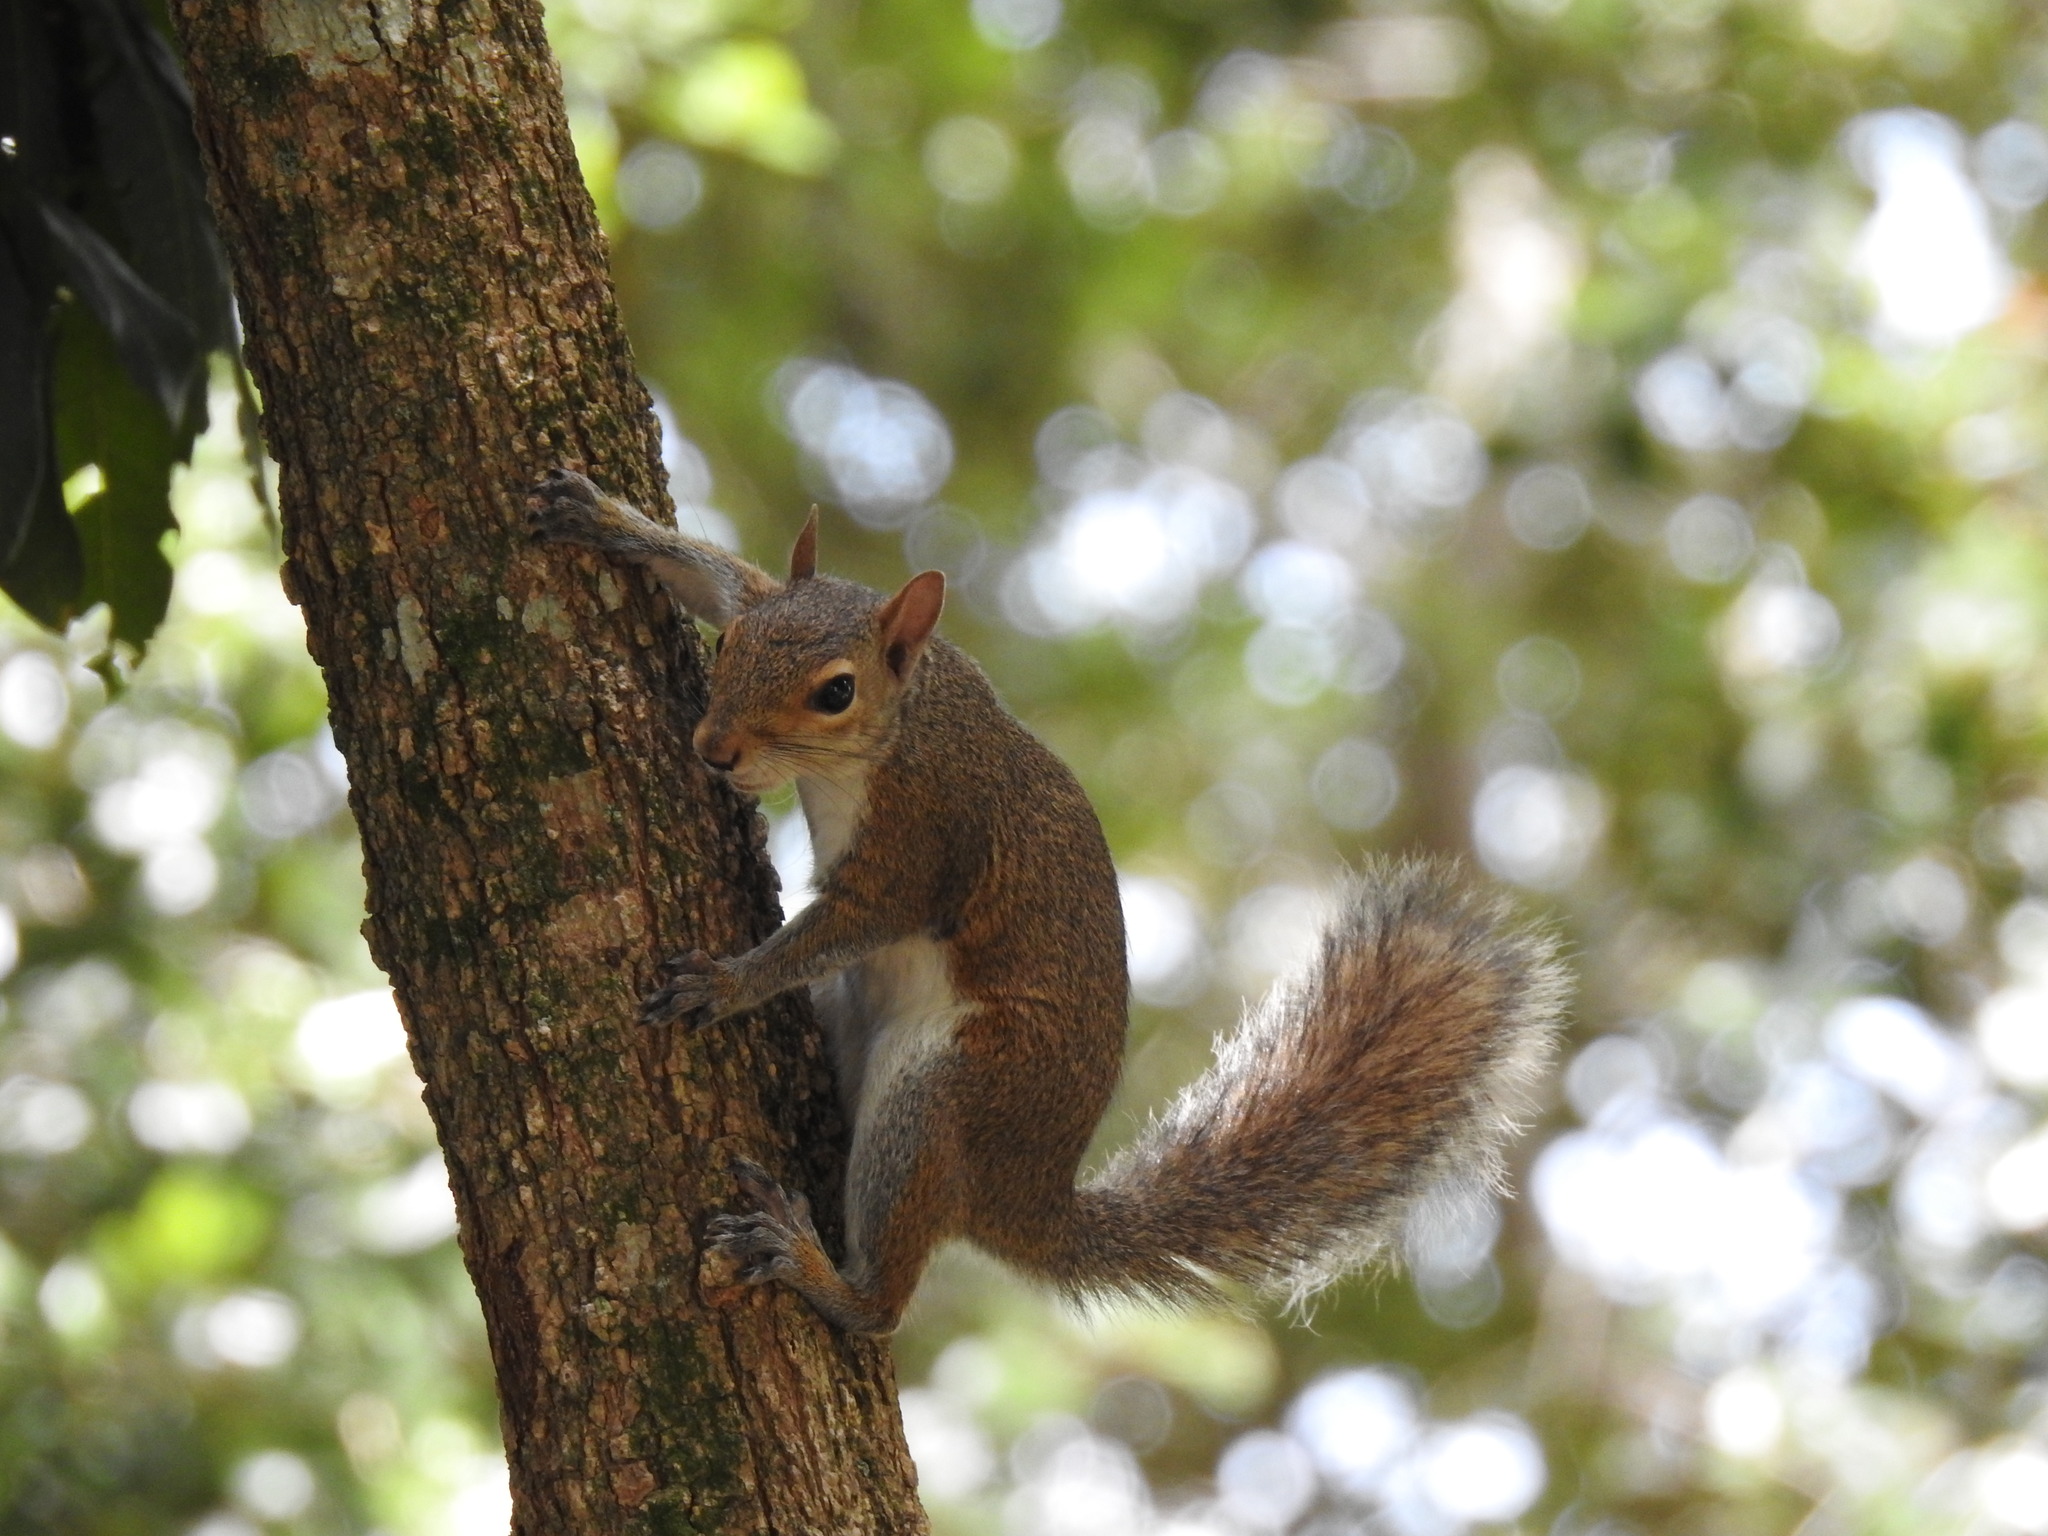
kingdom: Animalia
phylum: Chordata
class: Mammalia
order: Rodentia
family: Sciuridae
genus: Sciurus
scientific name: Sciurus carolinensis
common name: Eastern gray squirrel
